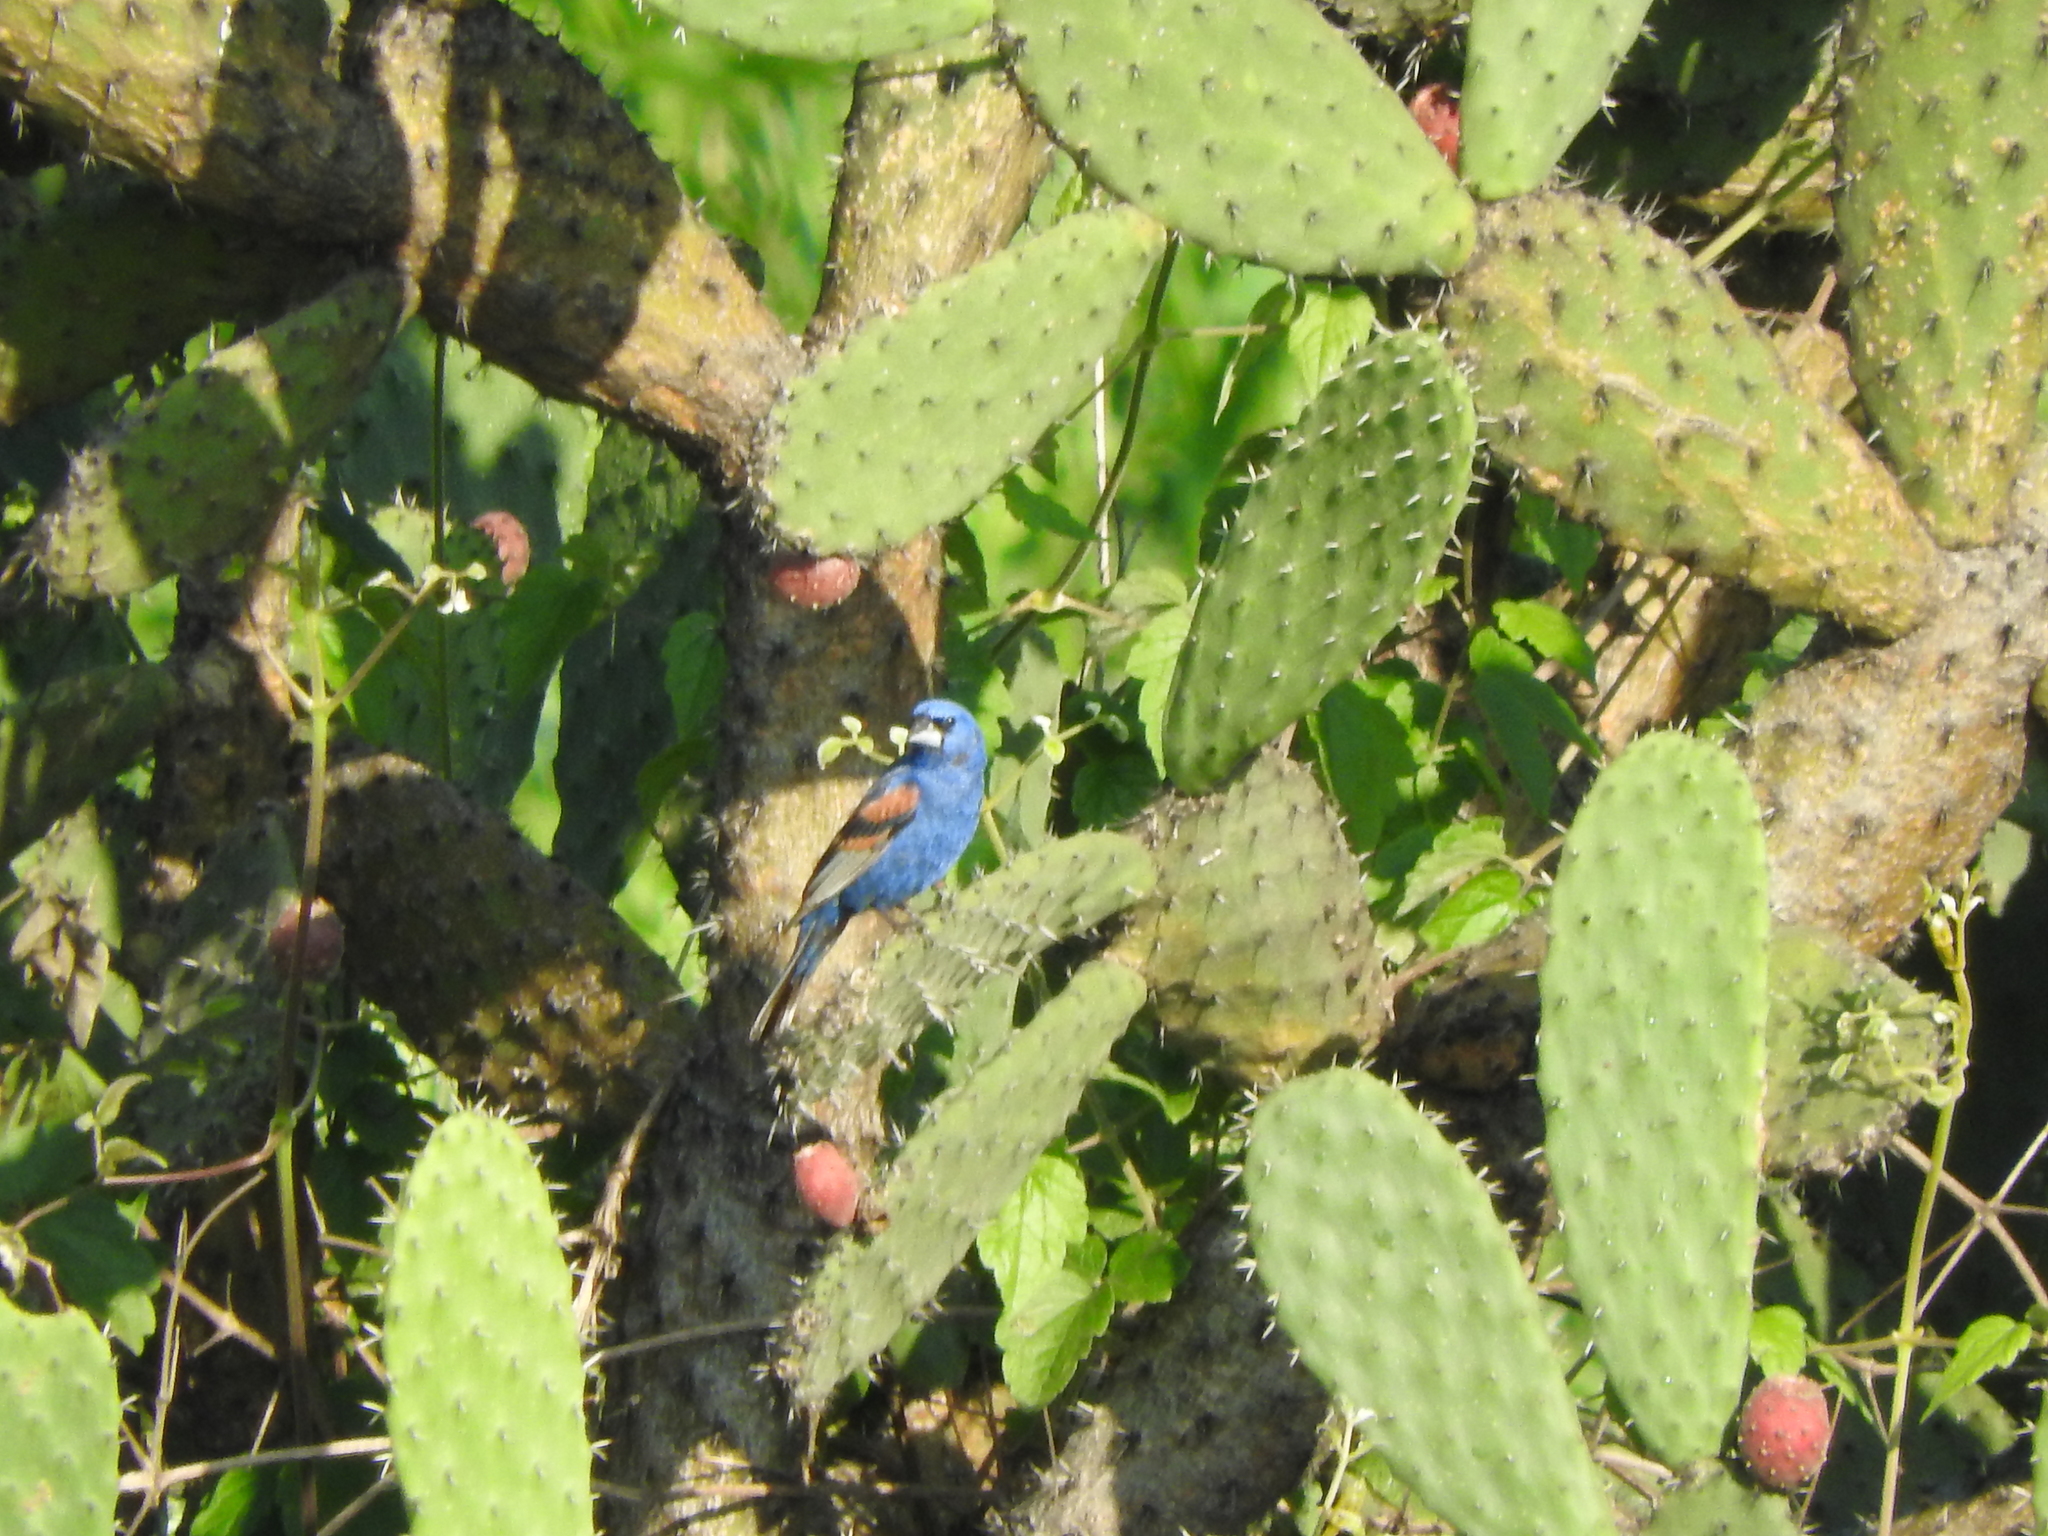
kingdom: Animalia
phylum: Chordata
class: Aves
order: Passeriformes
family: Cardinalidae
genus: Passerina
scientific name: Passerina caerulea
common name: Blue grosbeak
